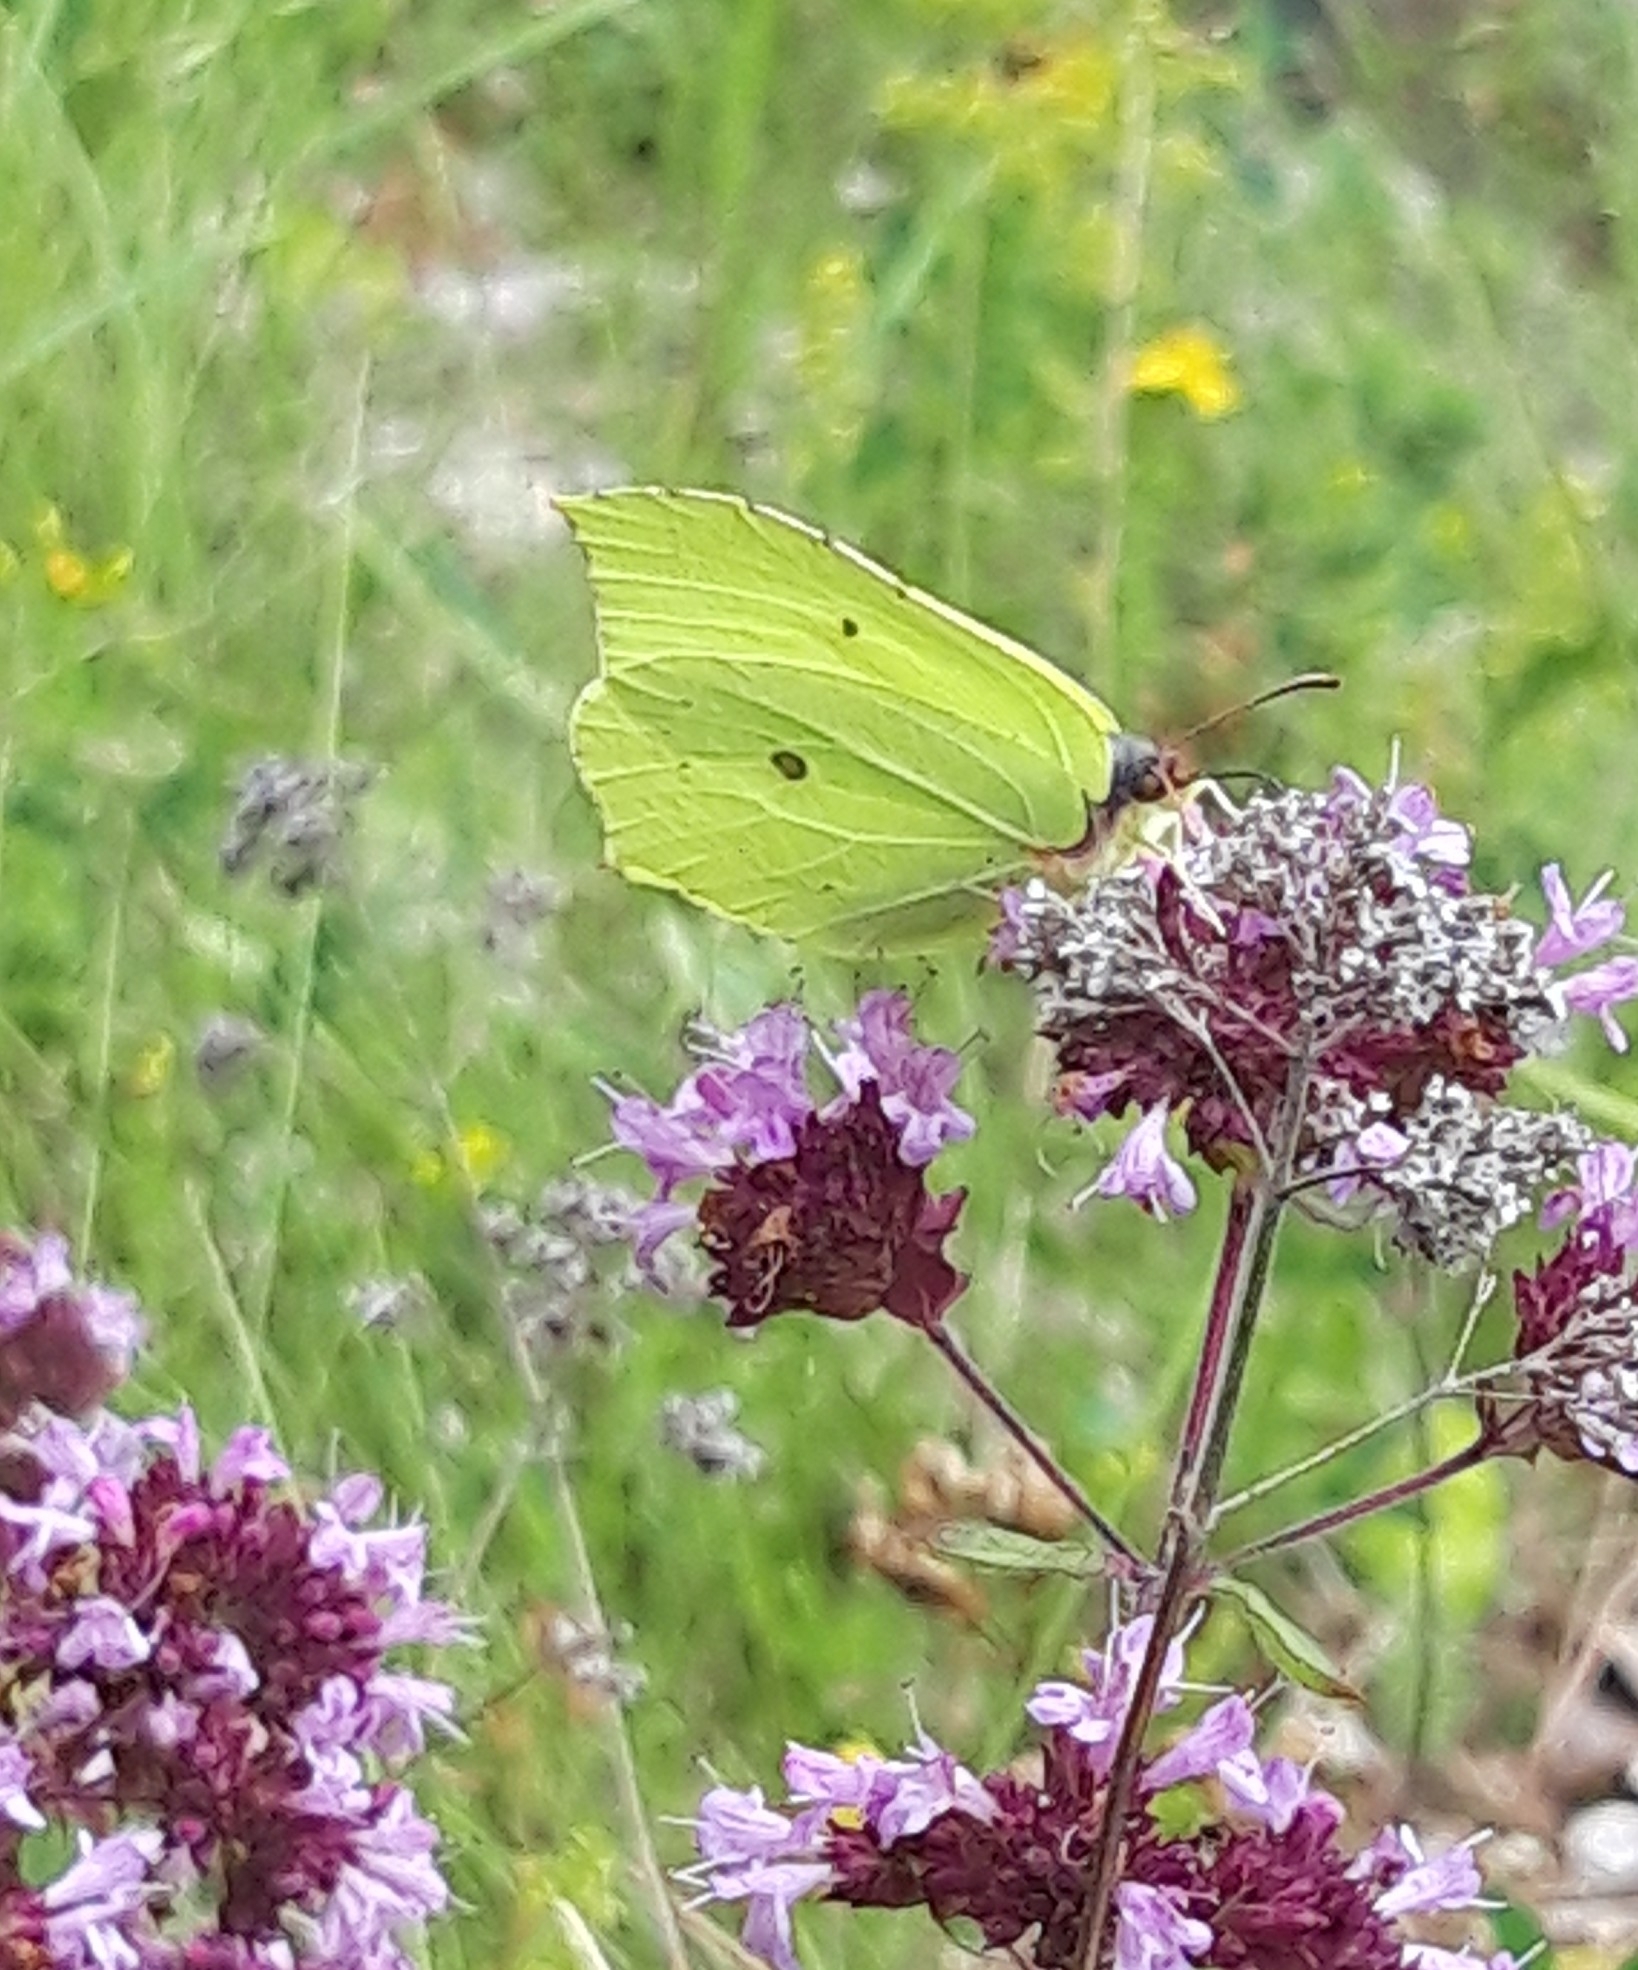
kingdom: Animalia
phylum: Arthropoda
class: Insecta
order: Lepidoptera
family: Pieridae
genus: Gonepteryx
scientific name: Gonepteryx rhamni
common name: Brimstone
